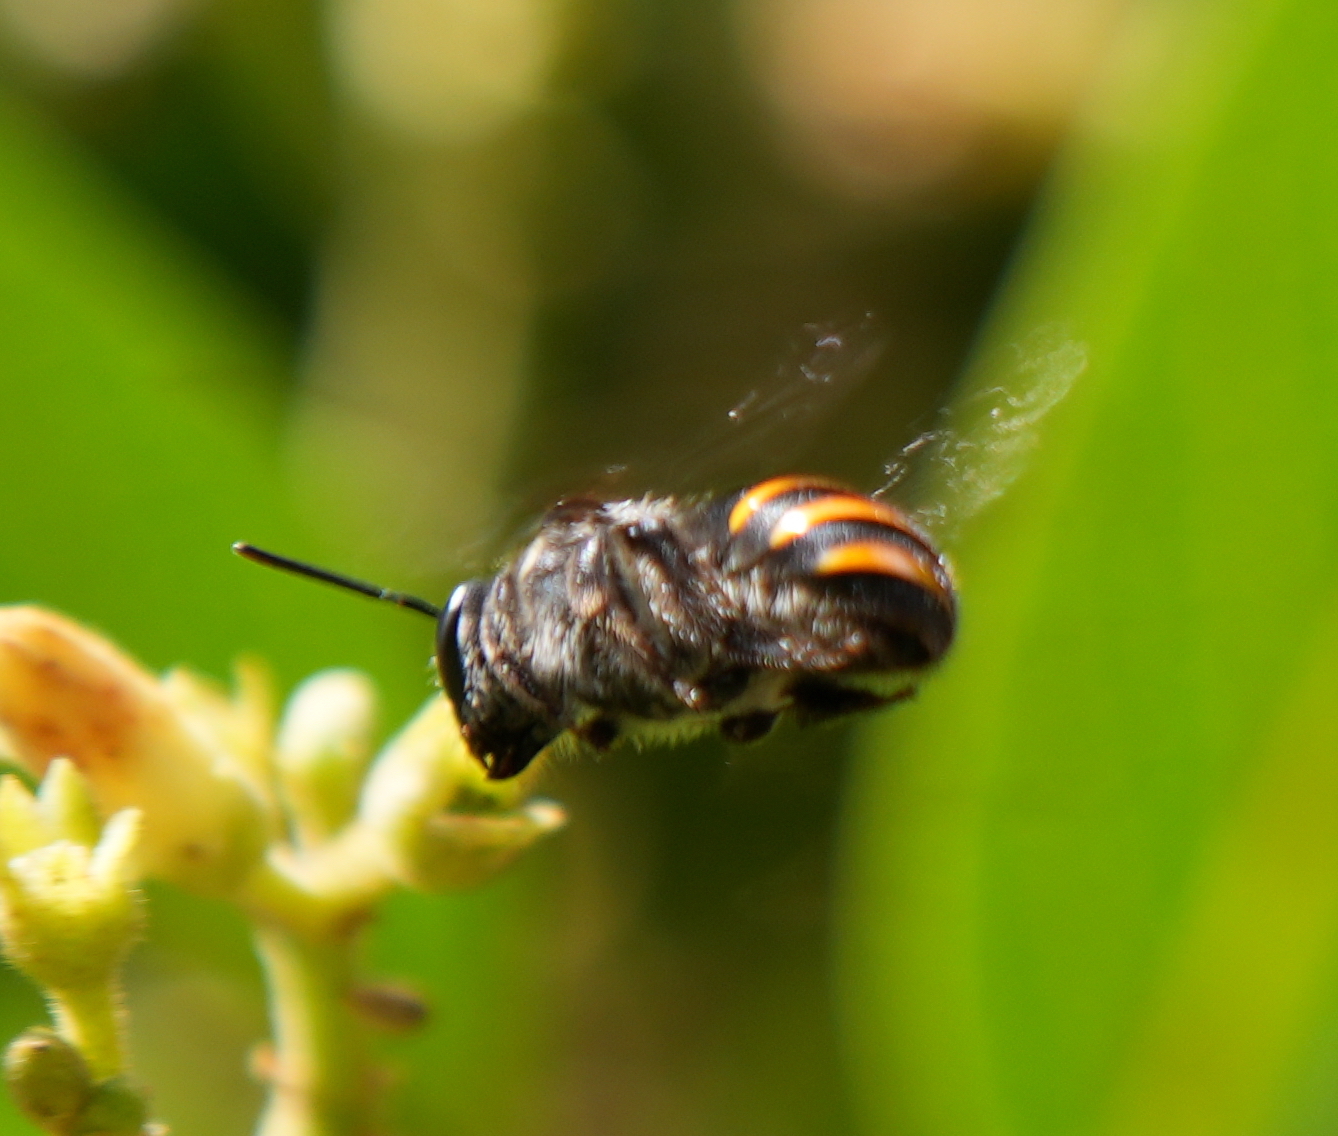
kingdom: Animalia
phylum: Arthropoda
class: Insecta
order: Hymenoptera
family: Halictidae
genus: Nomia
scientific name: Nomia aurantifer
